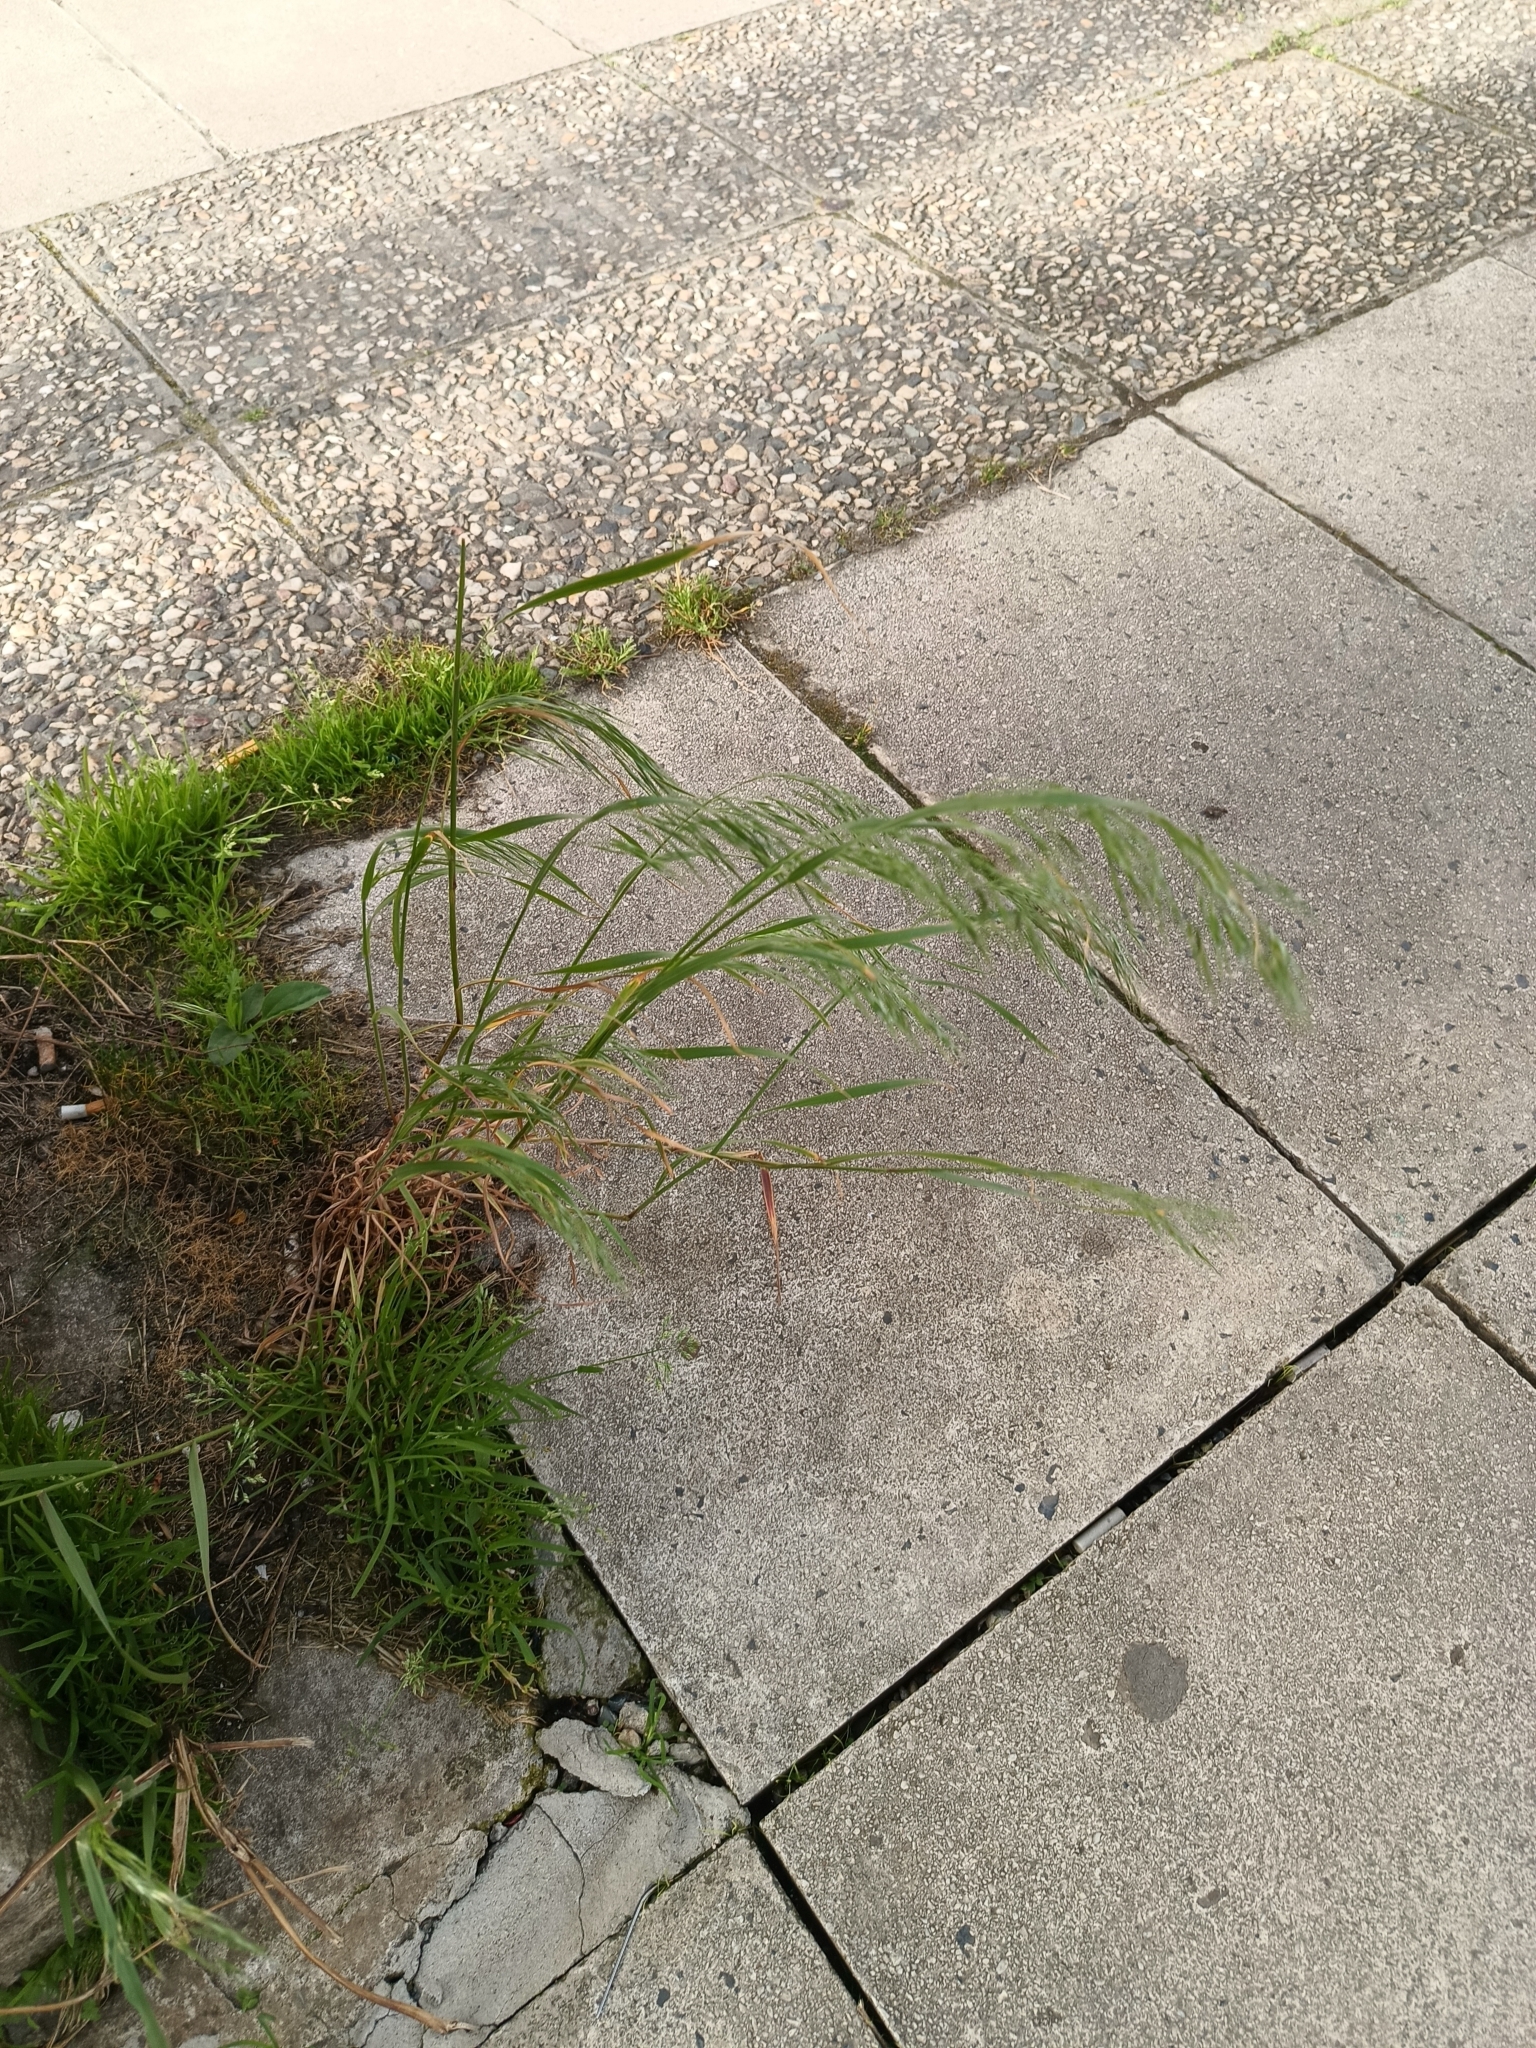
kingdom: Plantae
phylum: Tracheophyta
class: Liliopsida
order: Poales
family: Poaceae
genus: Bromus
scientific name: Bromus sterilis
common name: Poverty brome
